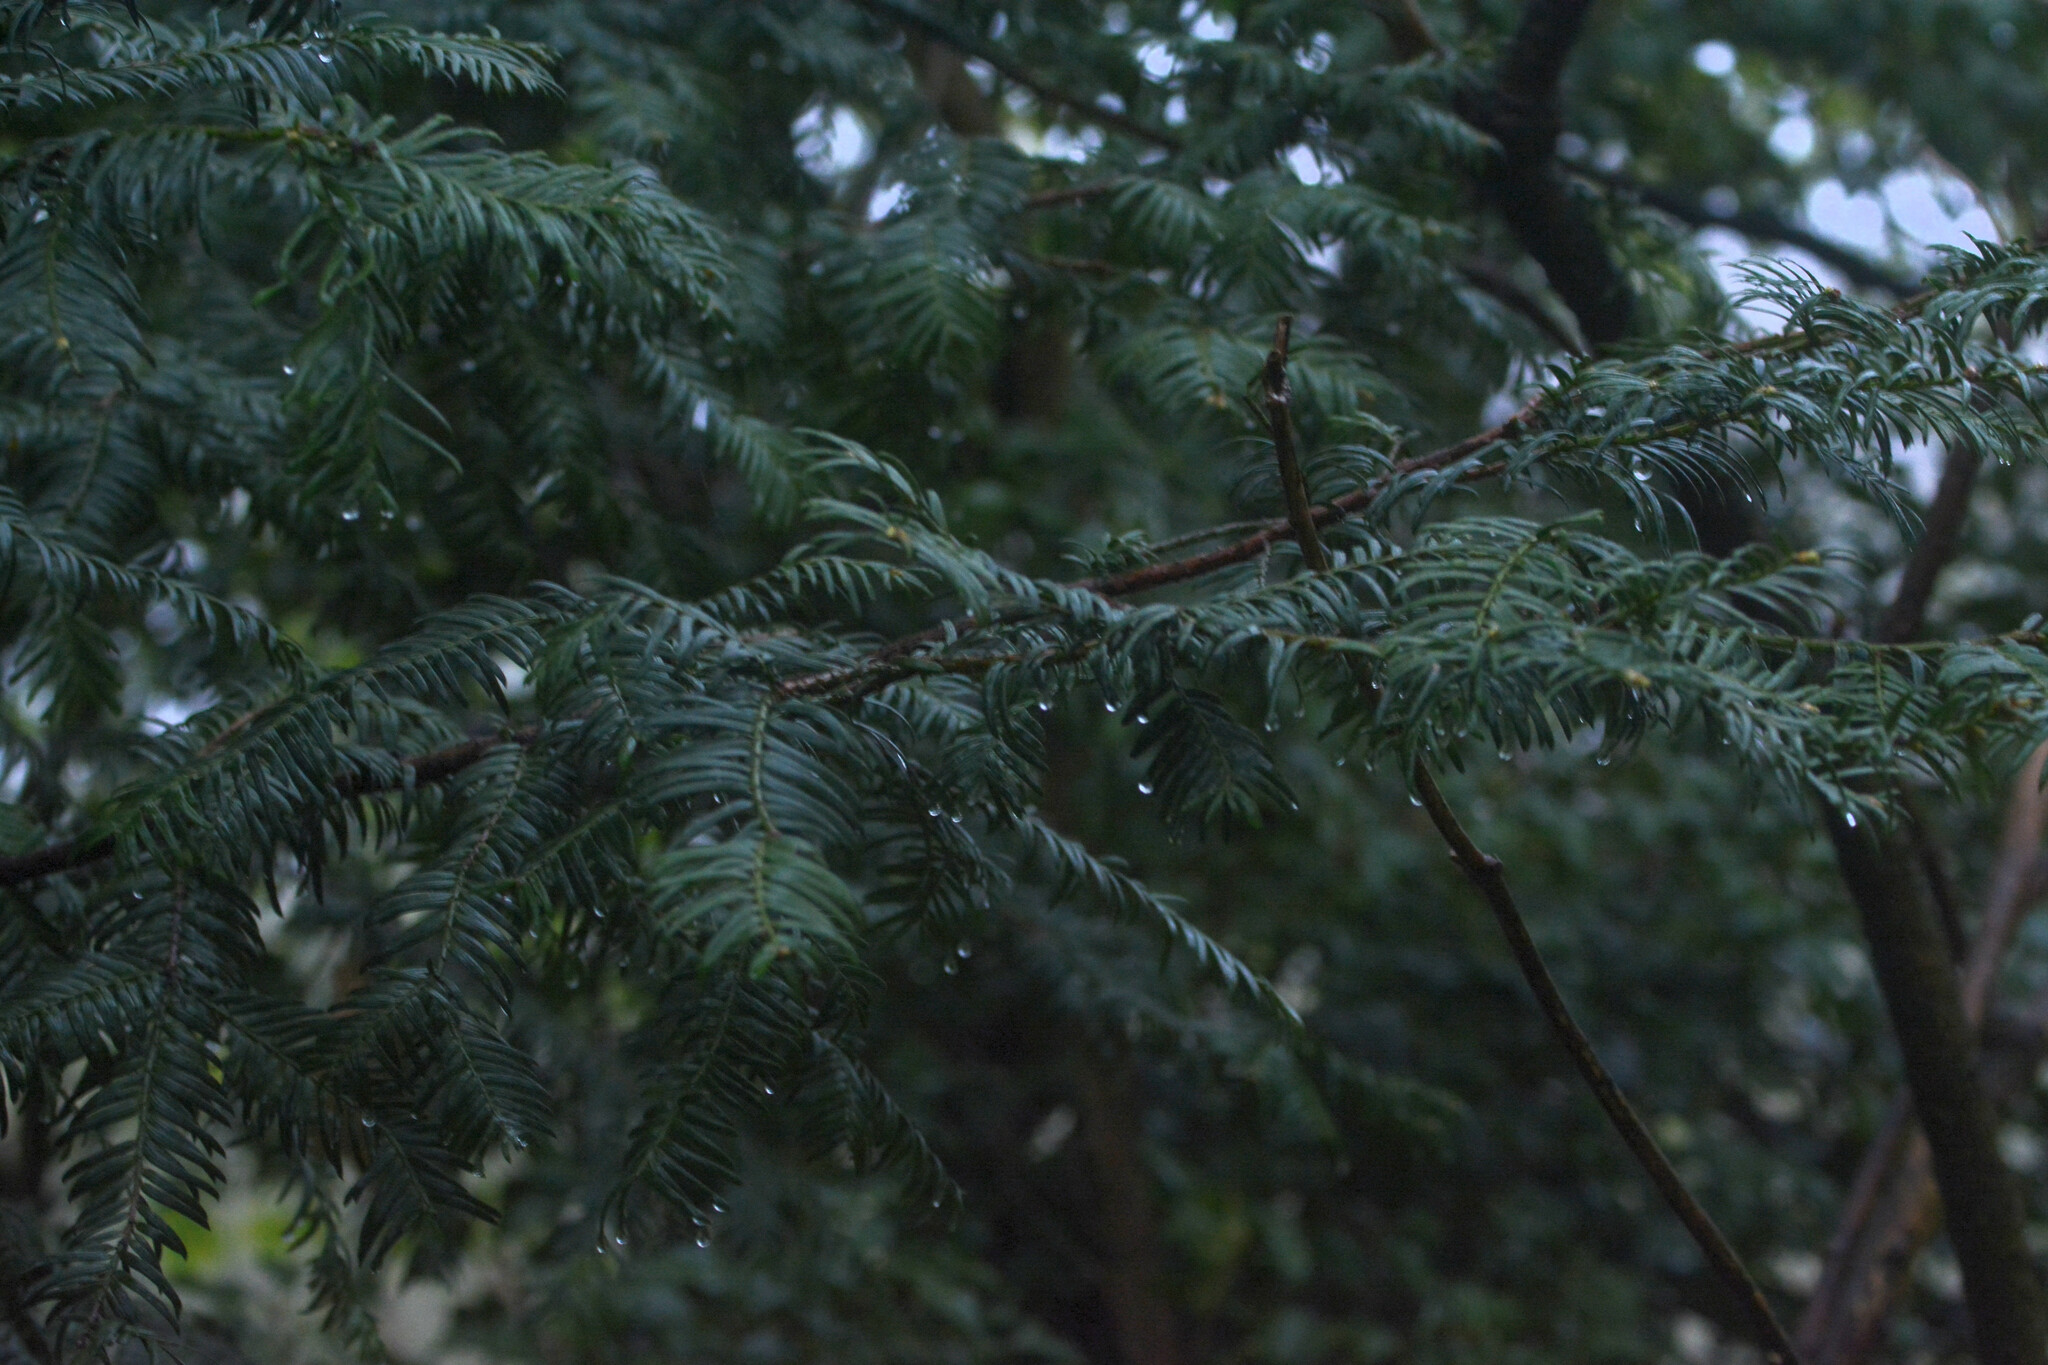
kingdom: Plantae
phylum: Tracheophyta
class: Pinopsida
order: Pinales
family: Taxaceae
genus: Taxus
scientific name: Taxus baccata
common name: Yew
